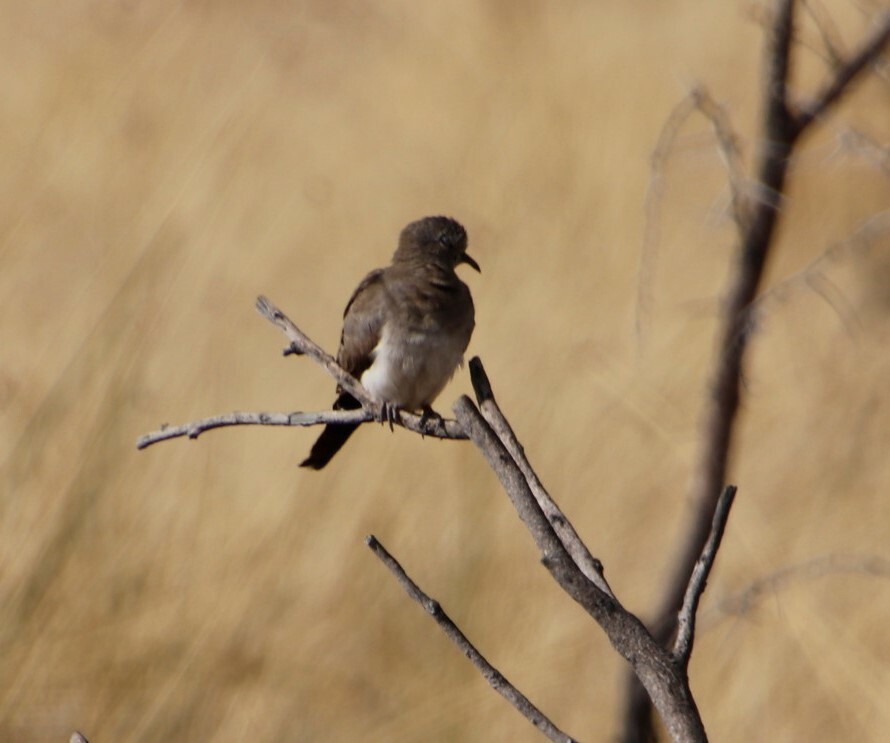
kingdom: Animalia
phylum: Chordata
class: Aves
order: Columbiformes
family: Columbidae
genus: Oena
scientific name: Oena capensis
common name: Namaqua dove
